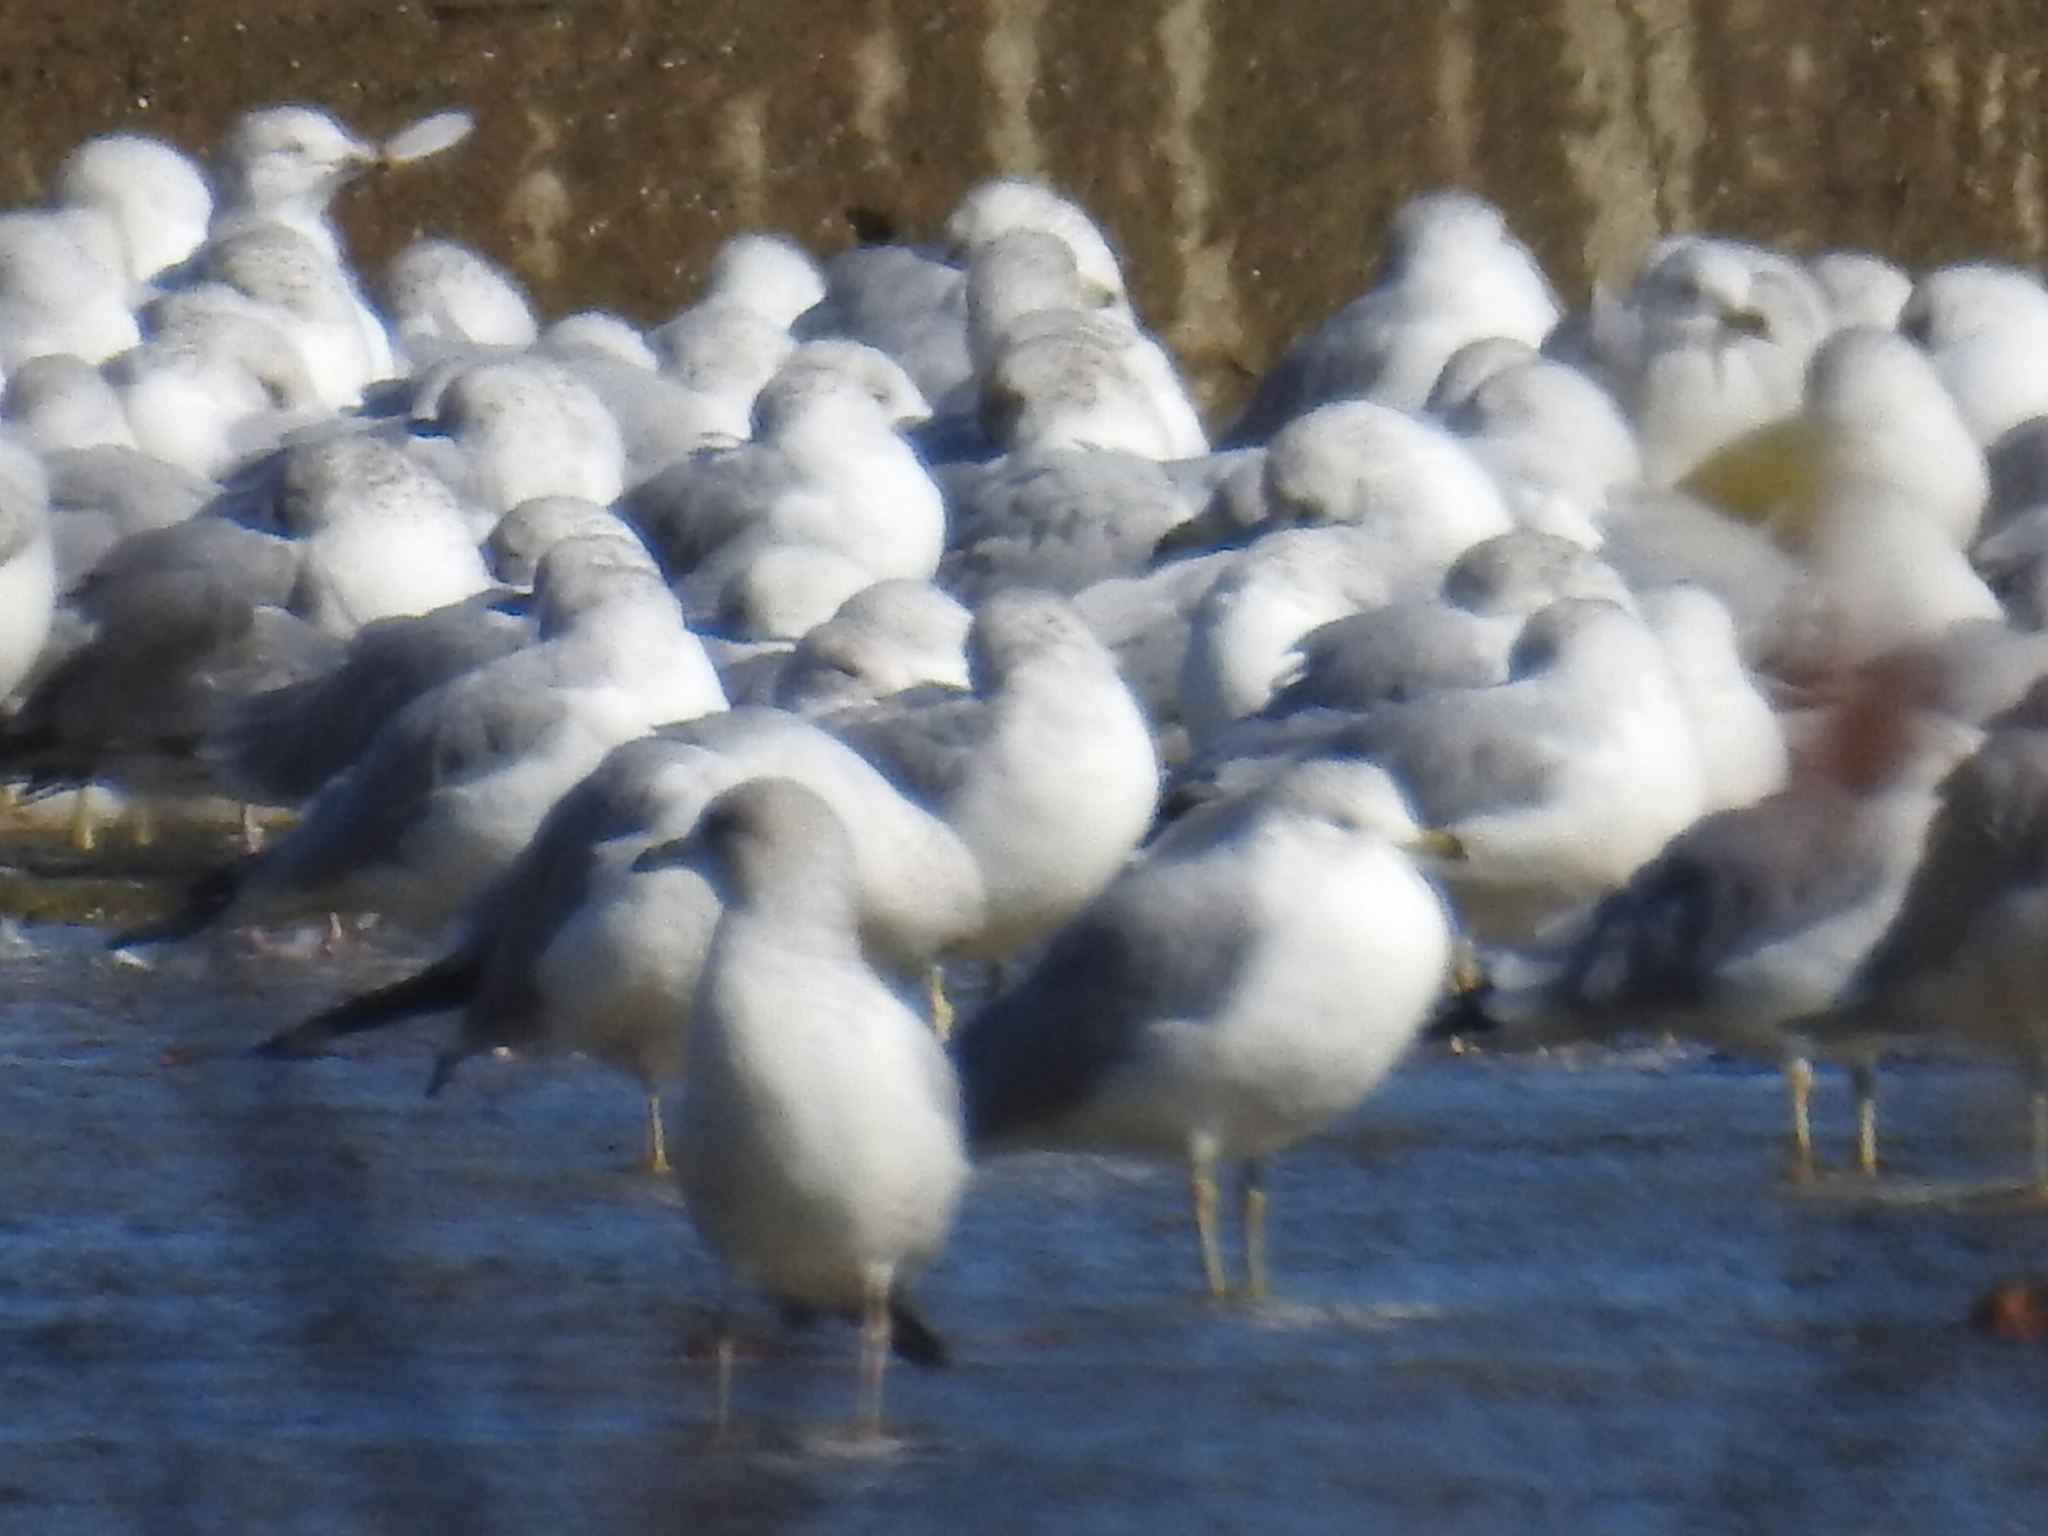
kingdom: Animalia
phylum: Chordata
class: Aves
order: Charadriiformes
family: Laridae
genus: Larus
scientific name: Larus delawarensis
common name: Ring-billed gull
